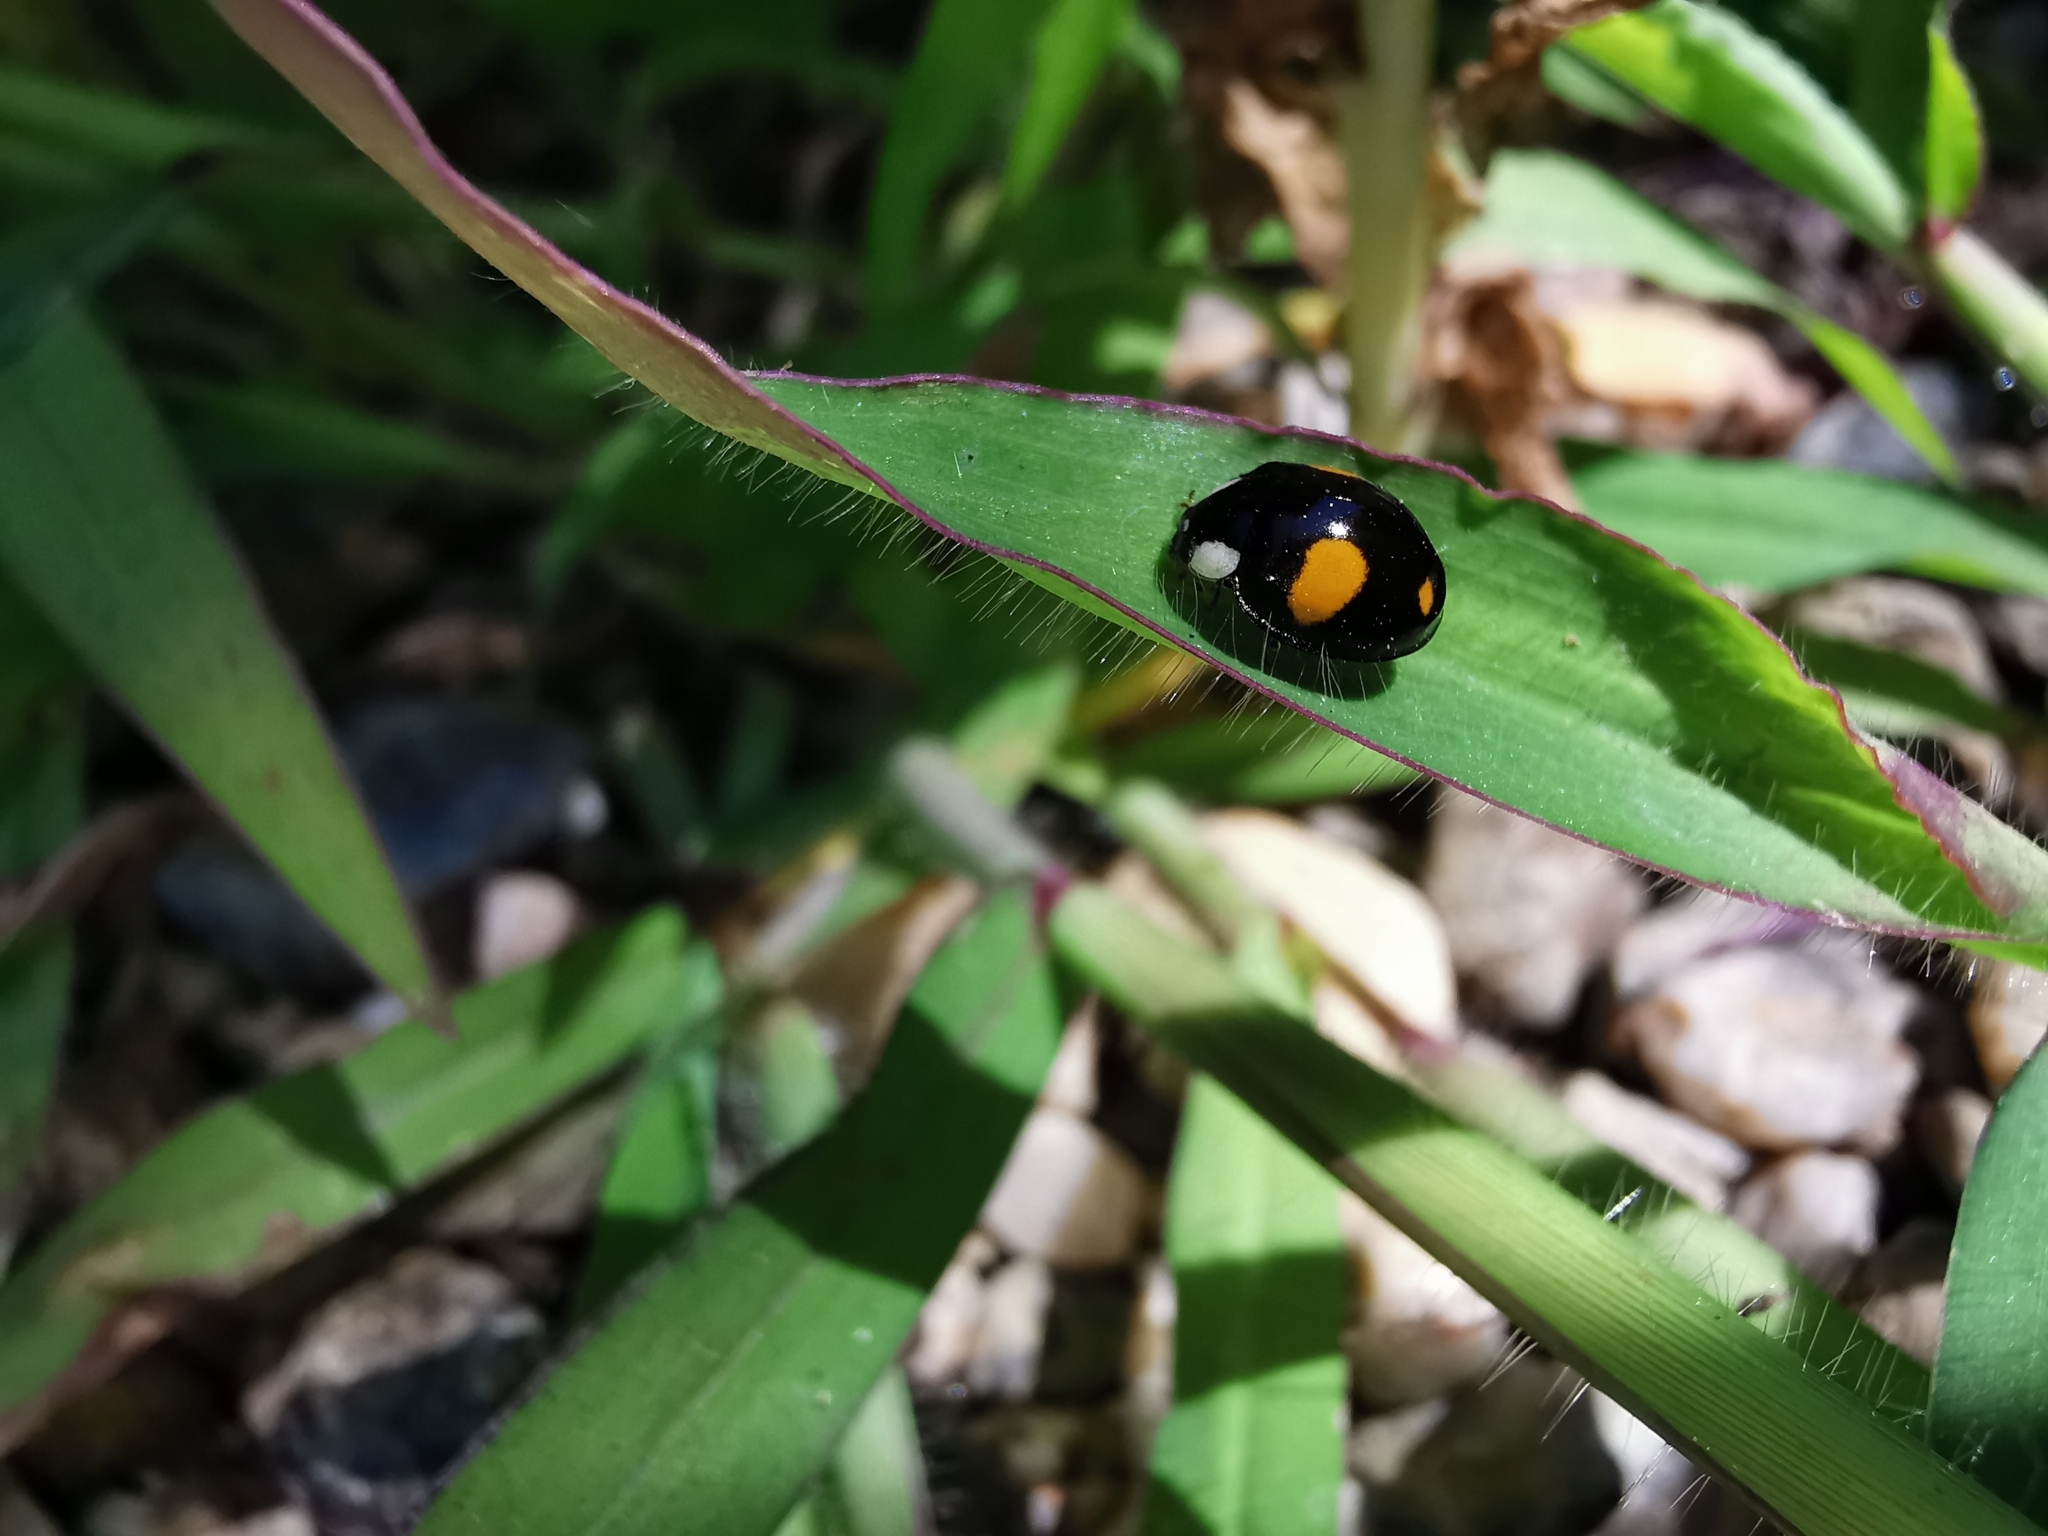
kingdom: Animalia
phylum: Arthropoda
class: Insecta
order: Coleoptera
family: Coccinellidae
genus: Harmonia
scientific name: Harmonia axyridis
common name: Harlequin ladybird
